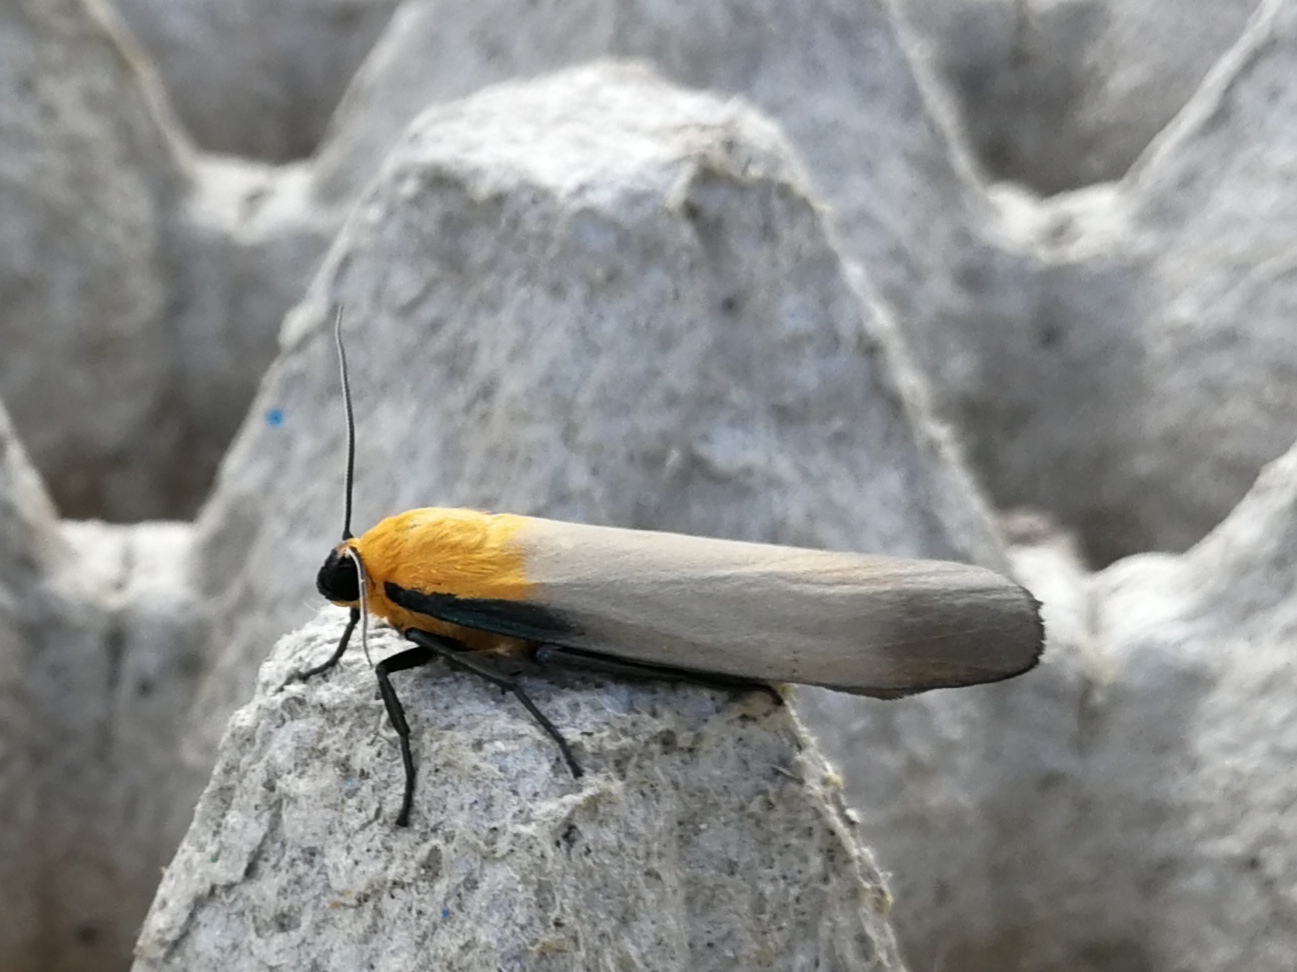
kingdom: Animalia
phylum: Arthropoda
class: Insecta
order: Lepidoptera
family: Erebidae
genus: Lithosia
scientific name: Lithosia quadra
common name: Four-spotted footman
